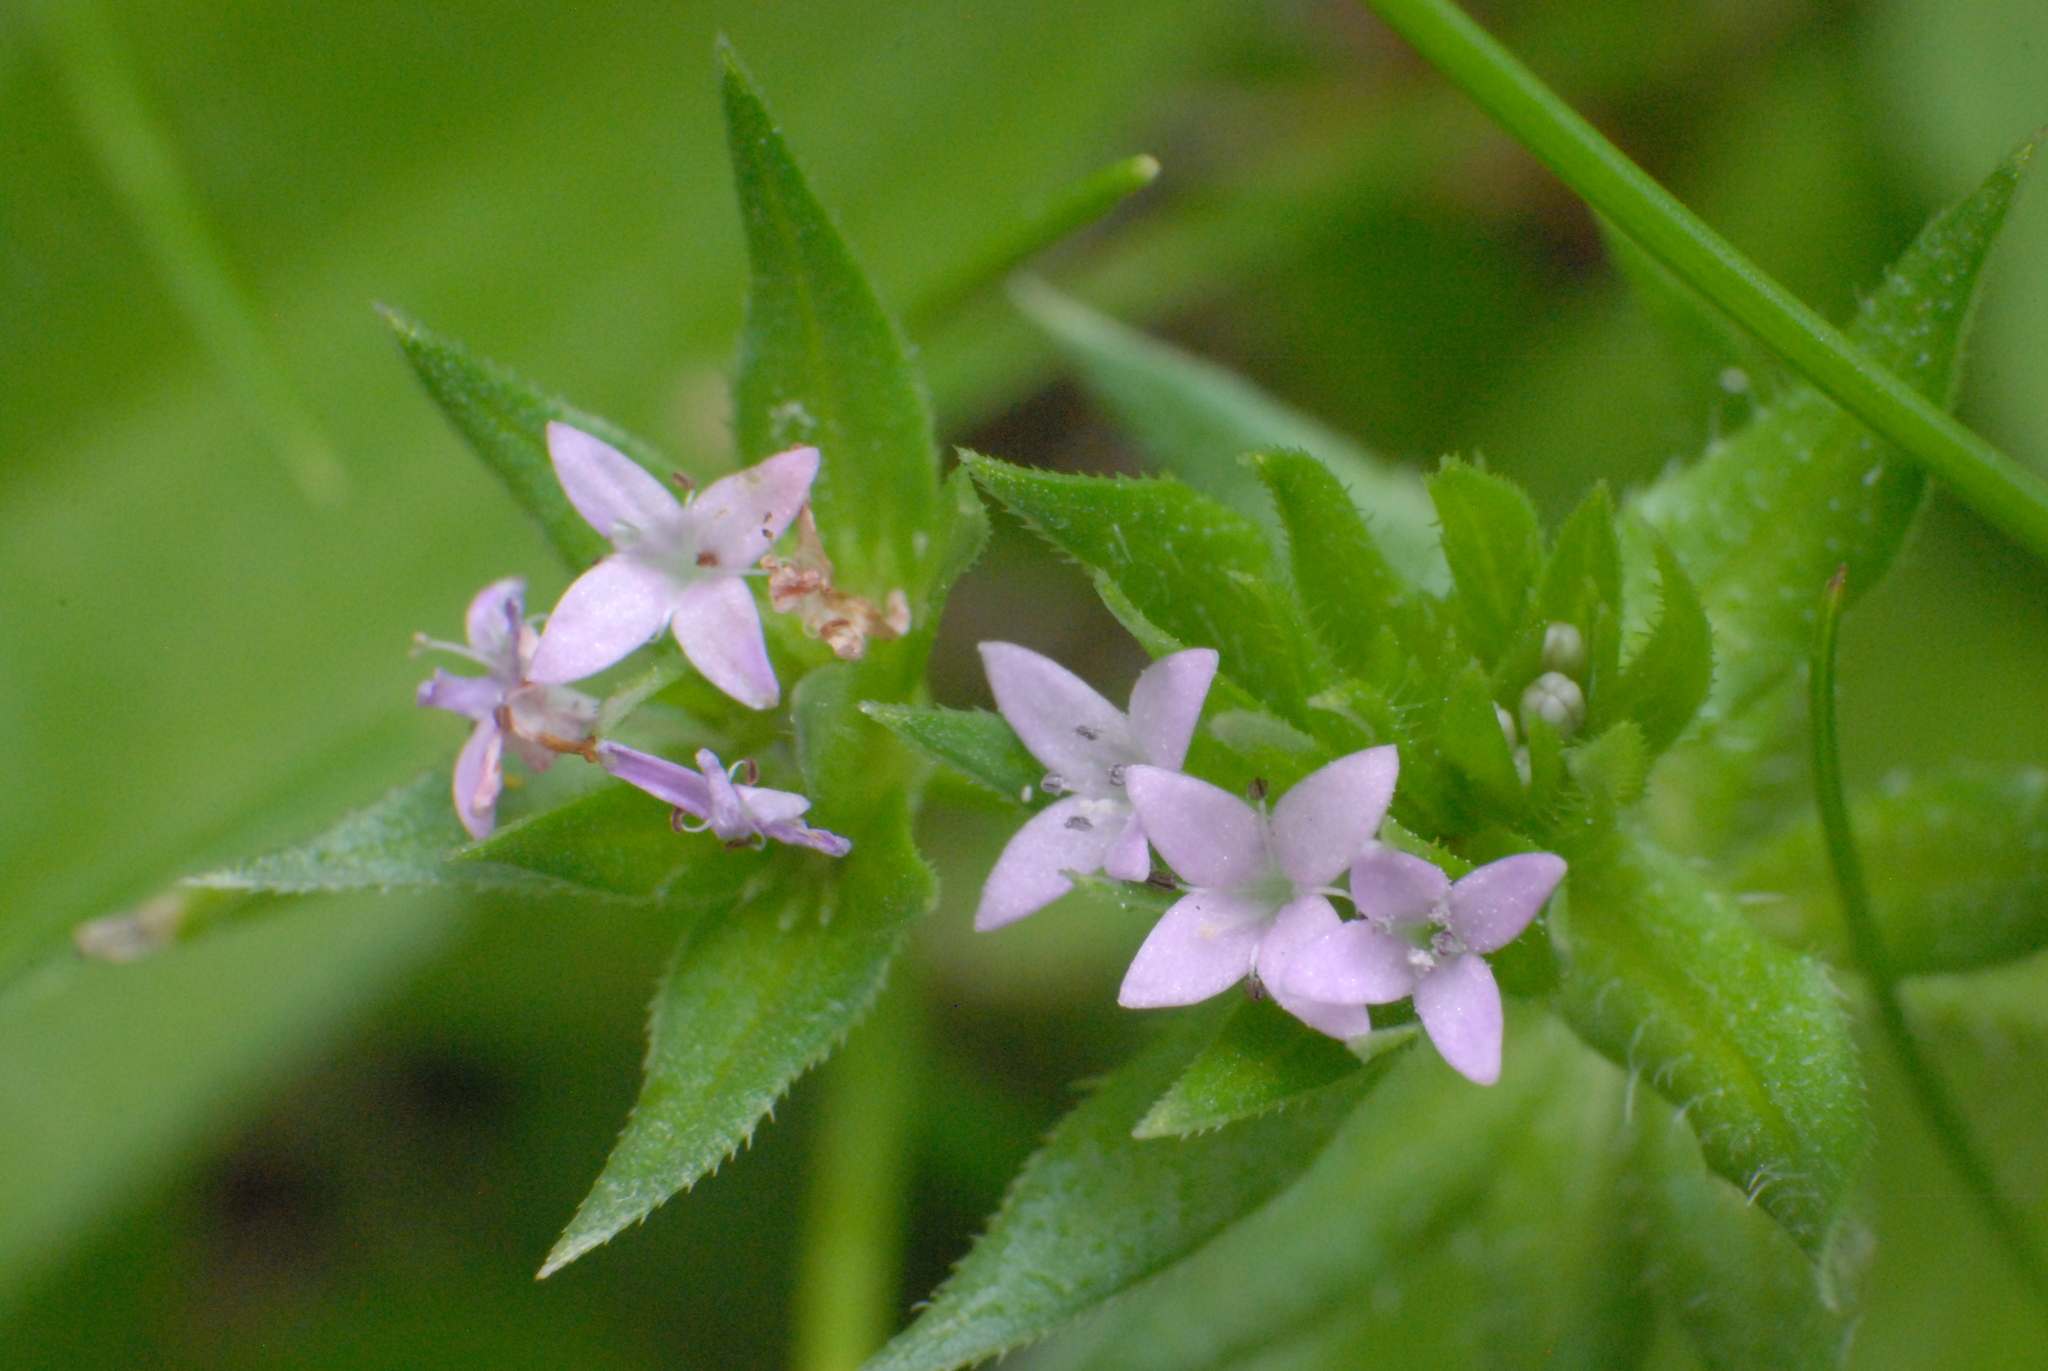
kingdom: Plantae
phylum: Tracheophyta
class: Magnoliopsida
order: Gentianales
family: Rubiaceae
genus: Sherardia
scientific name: Sherardia arvensis
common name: Field madder
